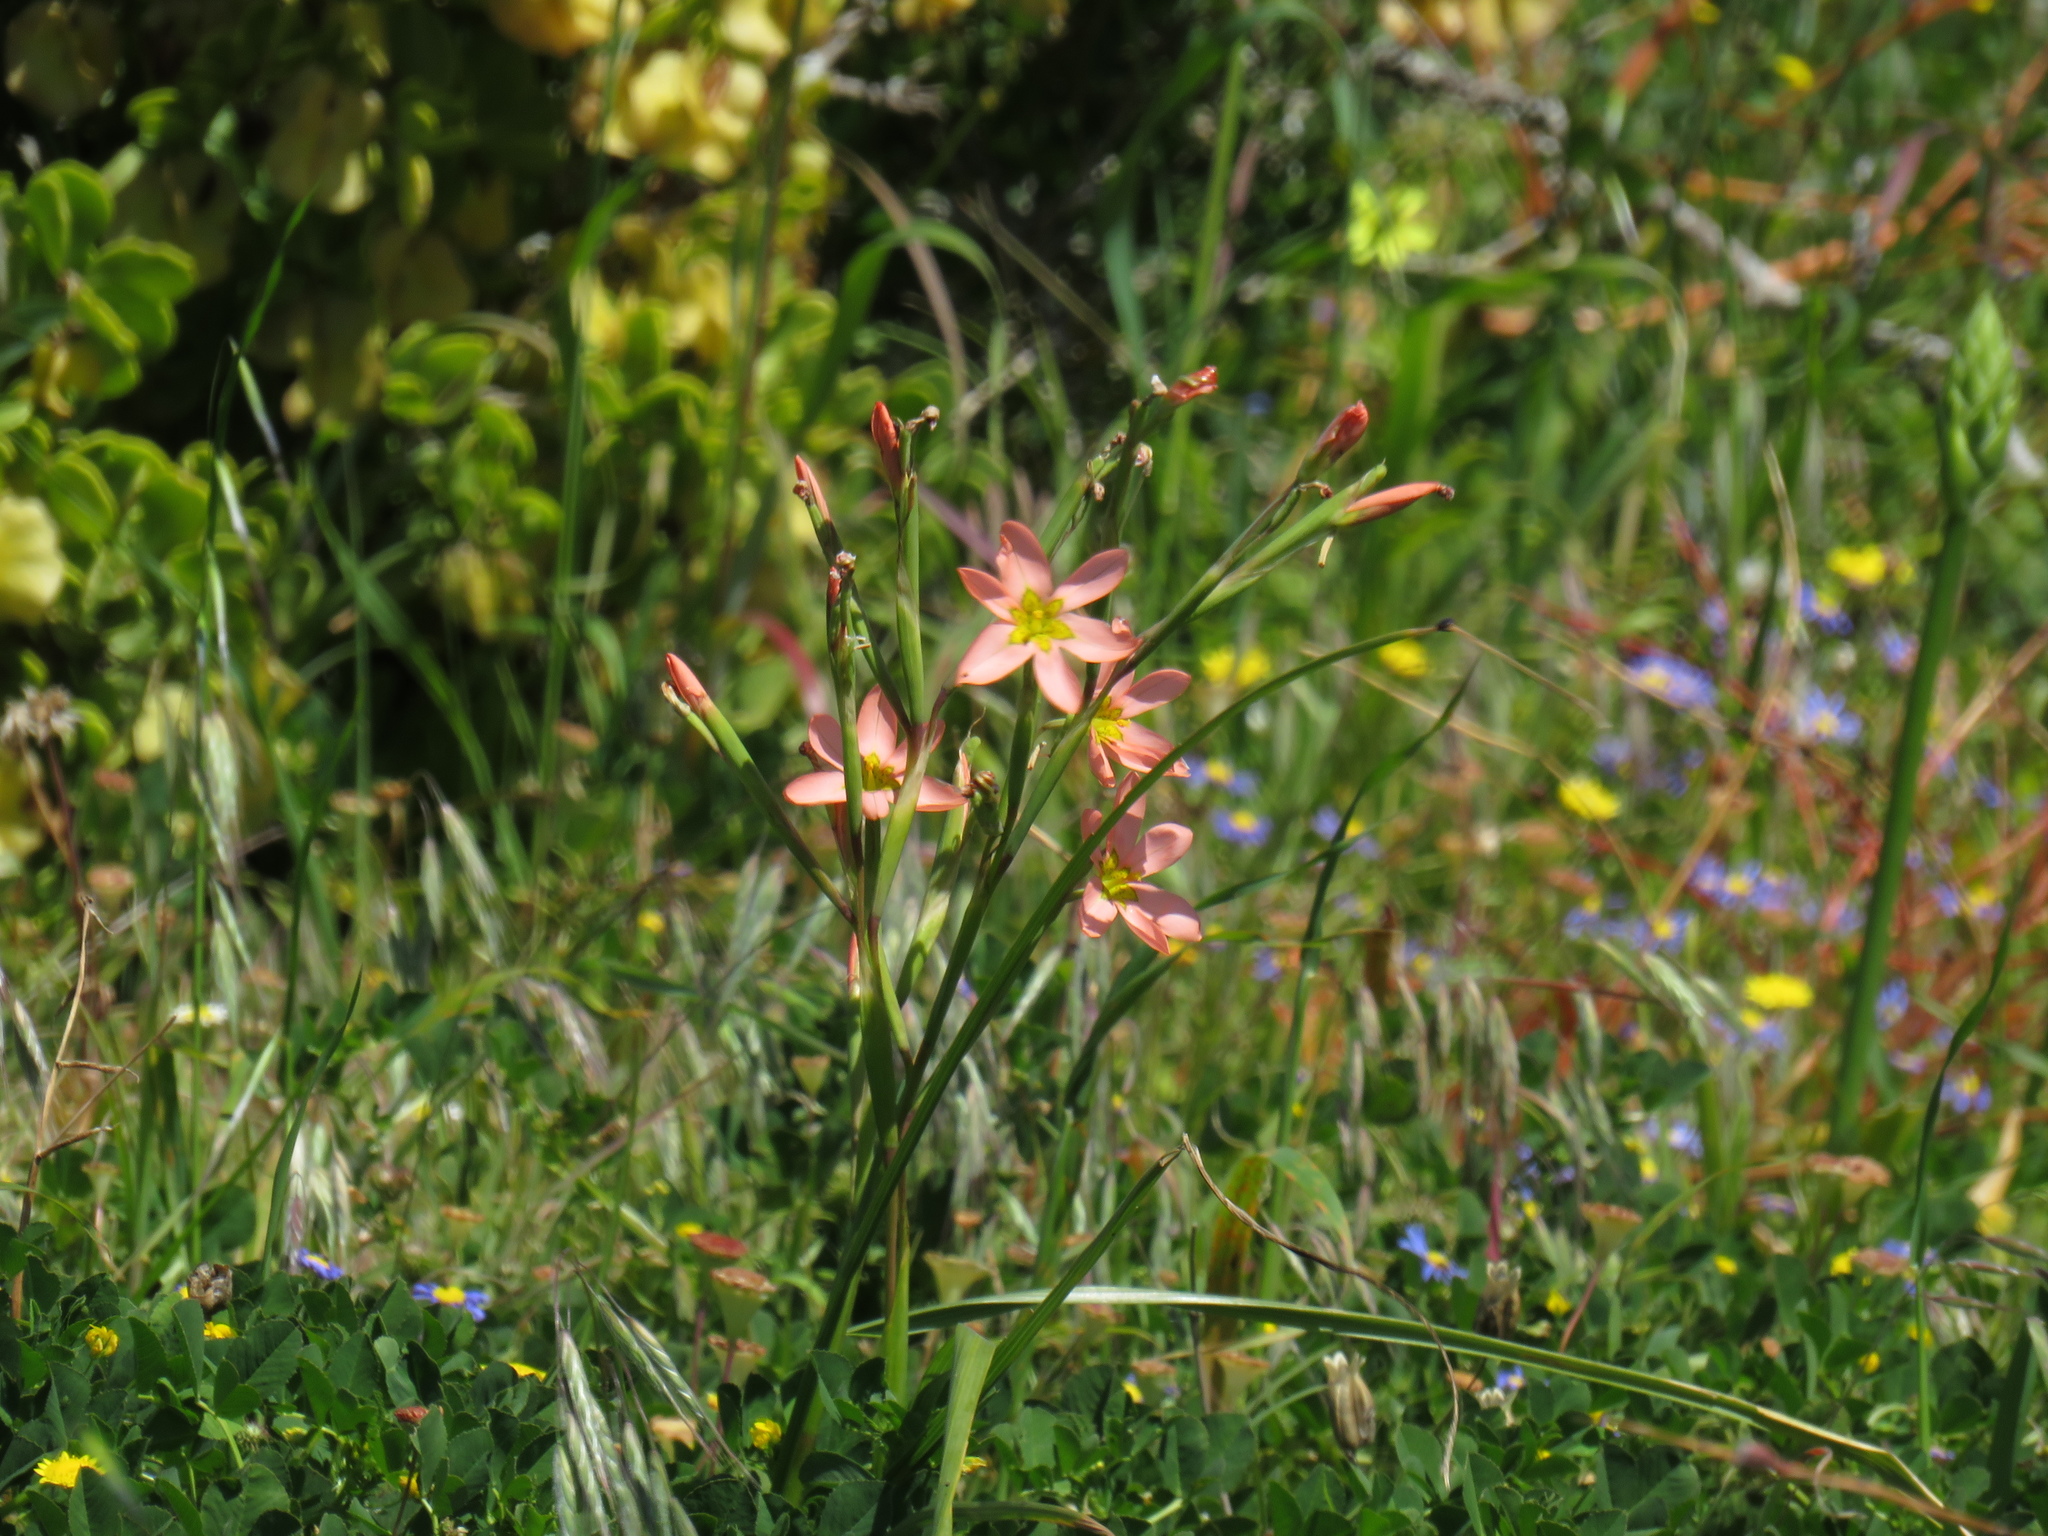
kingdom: Plantae
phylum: Tracheophyta
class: Liliopsida
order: Asparagales
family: Iridaceae
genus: Moraea
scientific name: Moraea miniata
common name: Two-leaf cape-tulip
